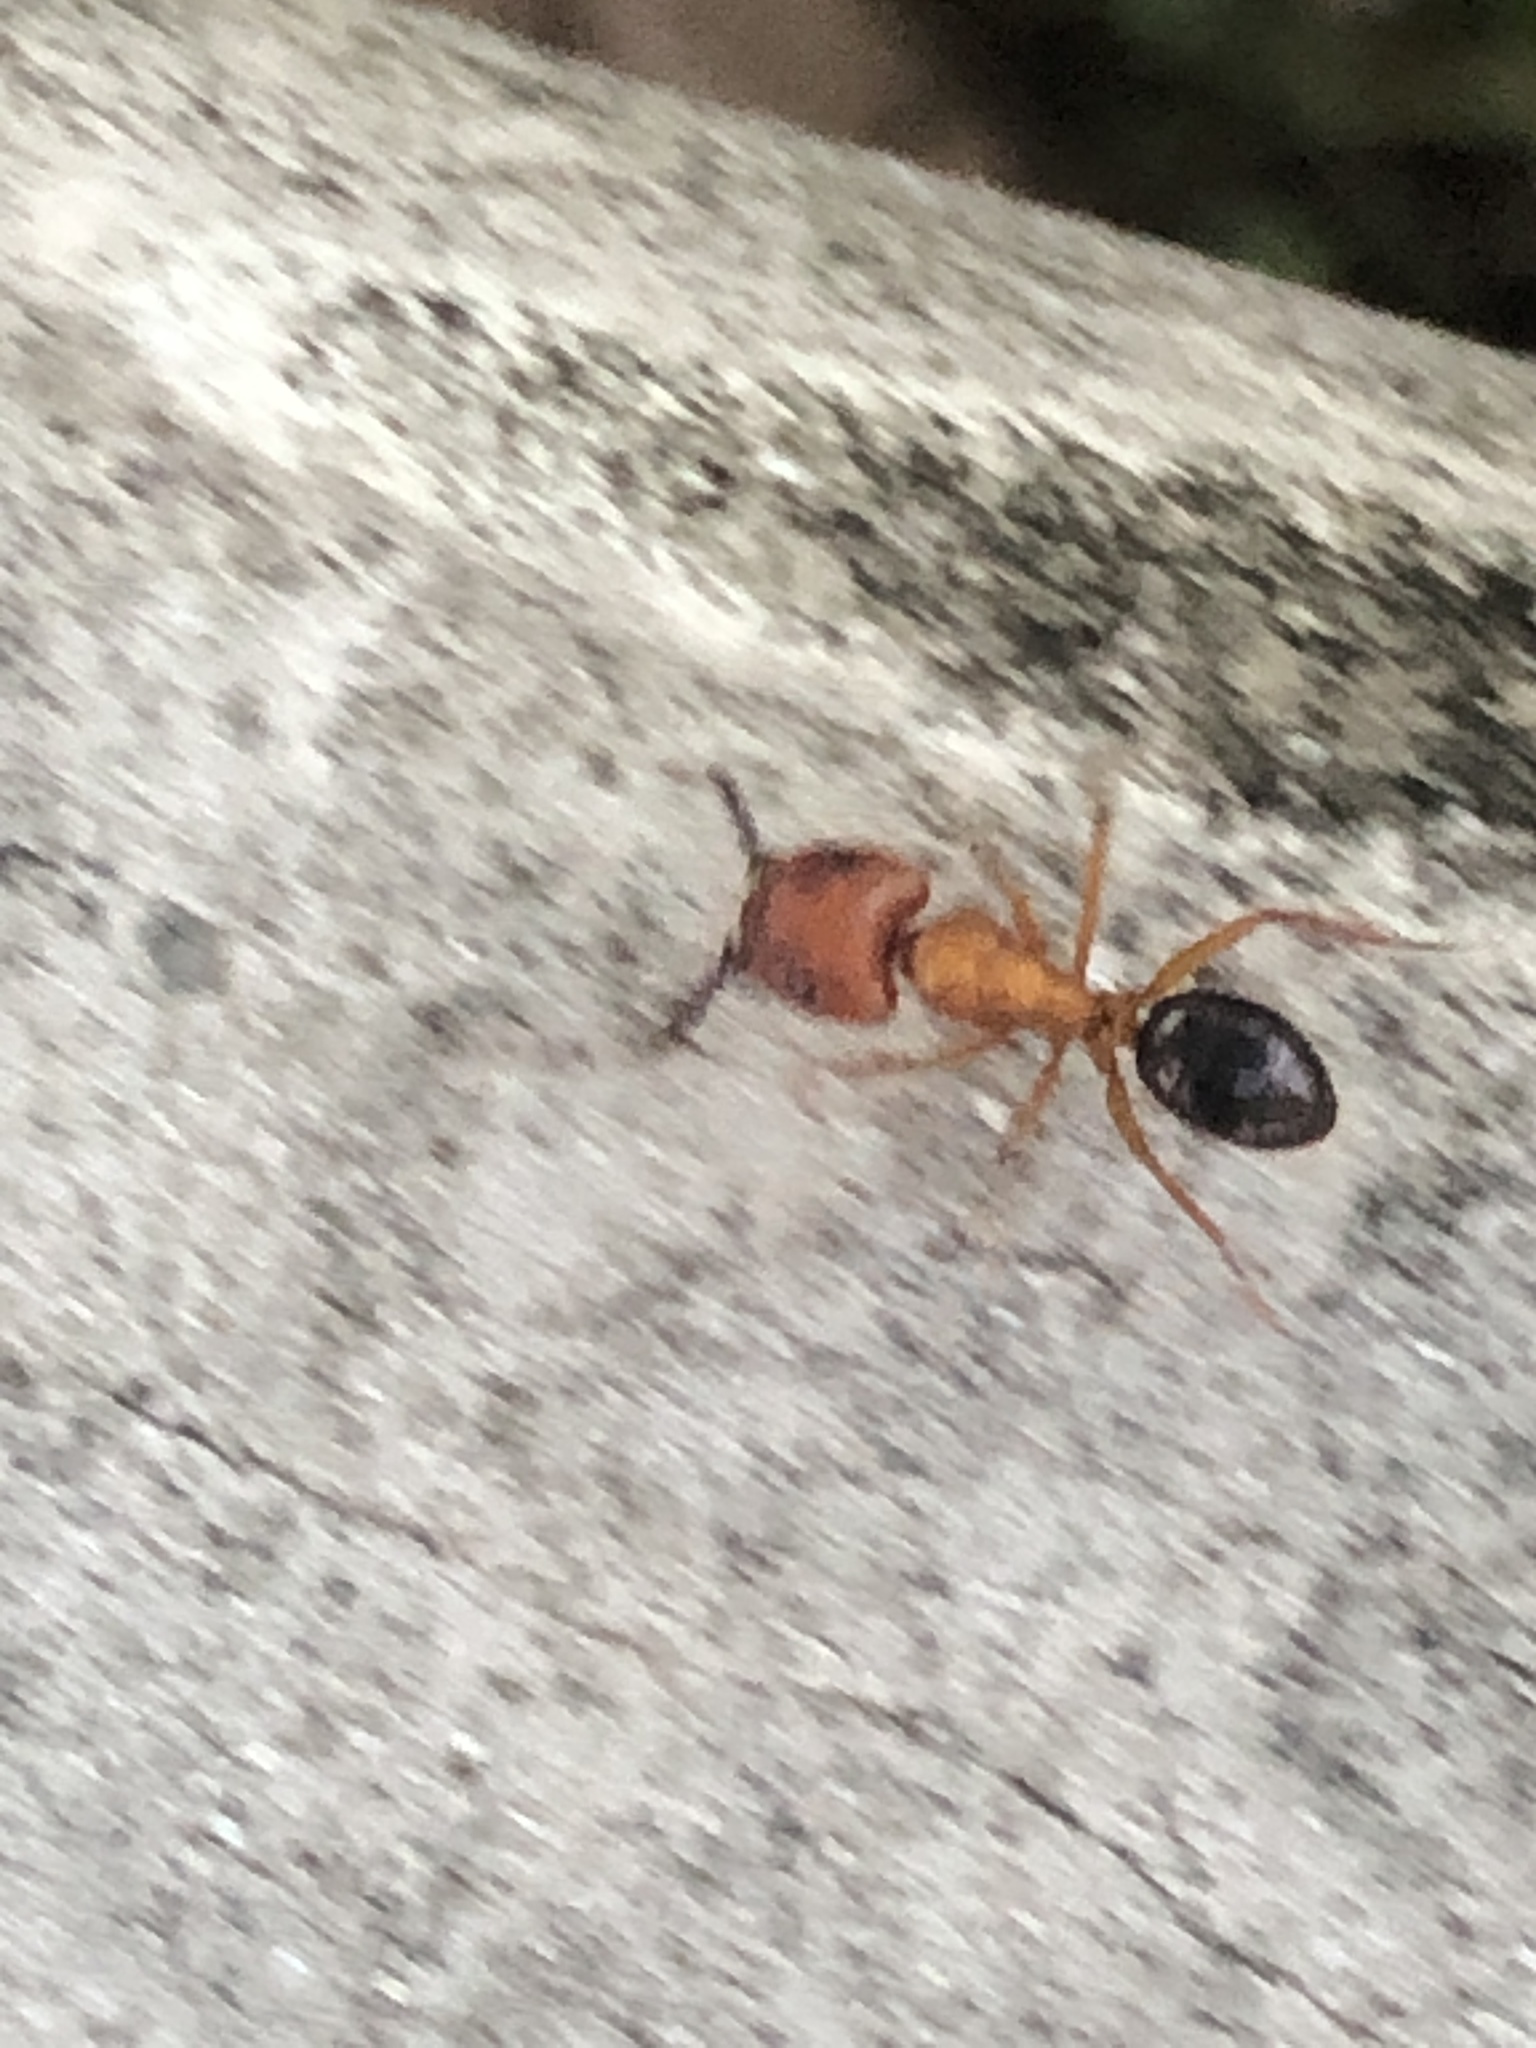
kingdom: Animalia
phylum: Arthropoda
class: Insecta
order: Hymenoptera
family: Formicidae
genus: Camponotus
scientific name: Camponotus floridanus
